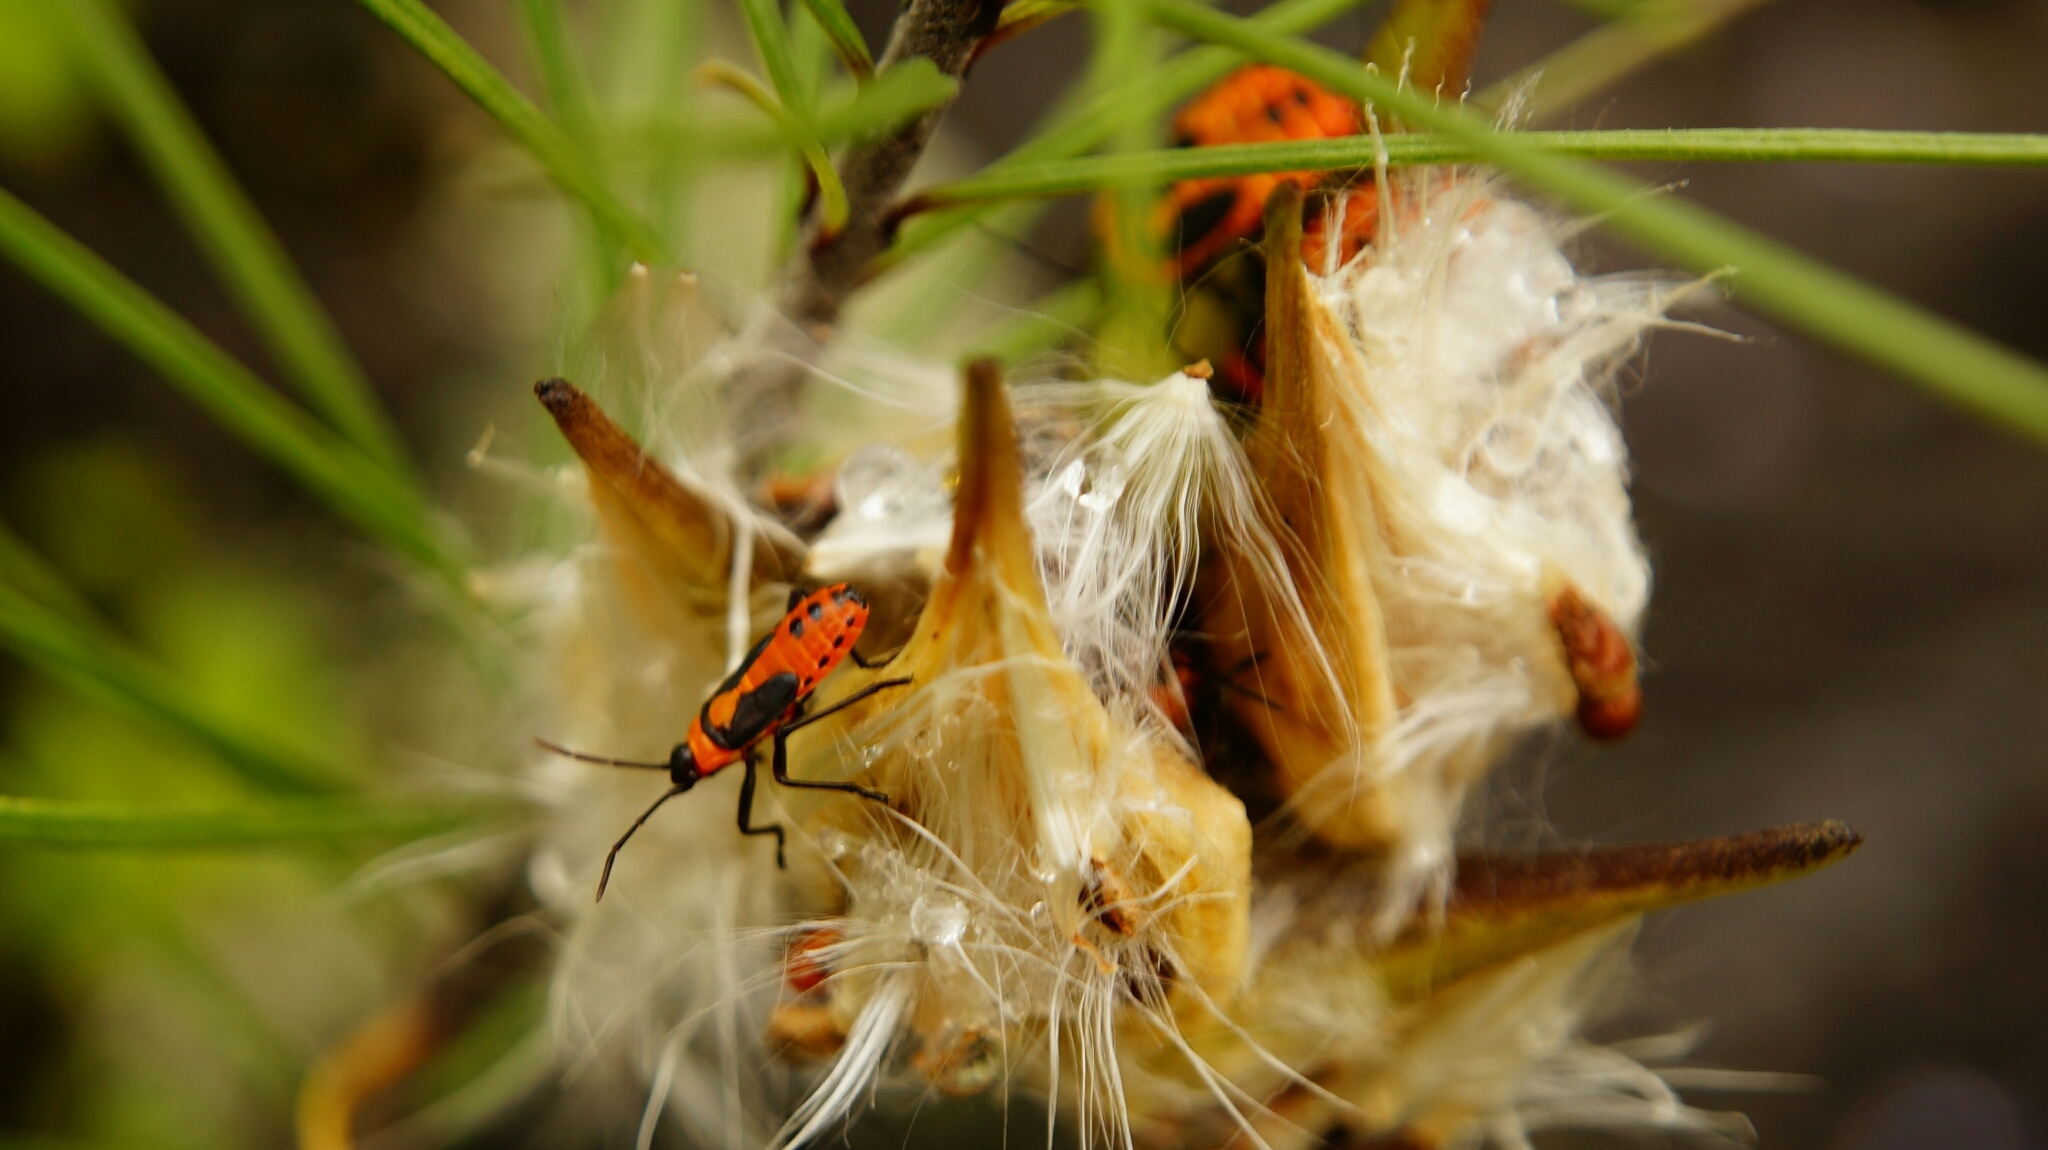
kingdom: Animalia
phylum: Arthropoda
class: Insecta
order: Hemiptera
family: Lygaeidae
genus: Oncopeltus
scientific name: Oncopeltus fasciatus
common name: Large milkweed bug
